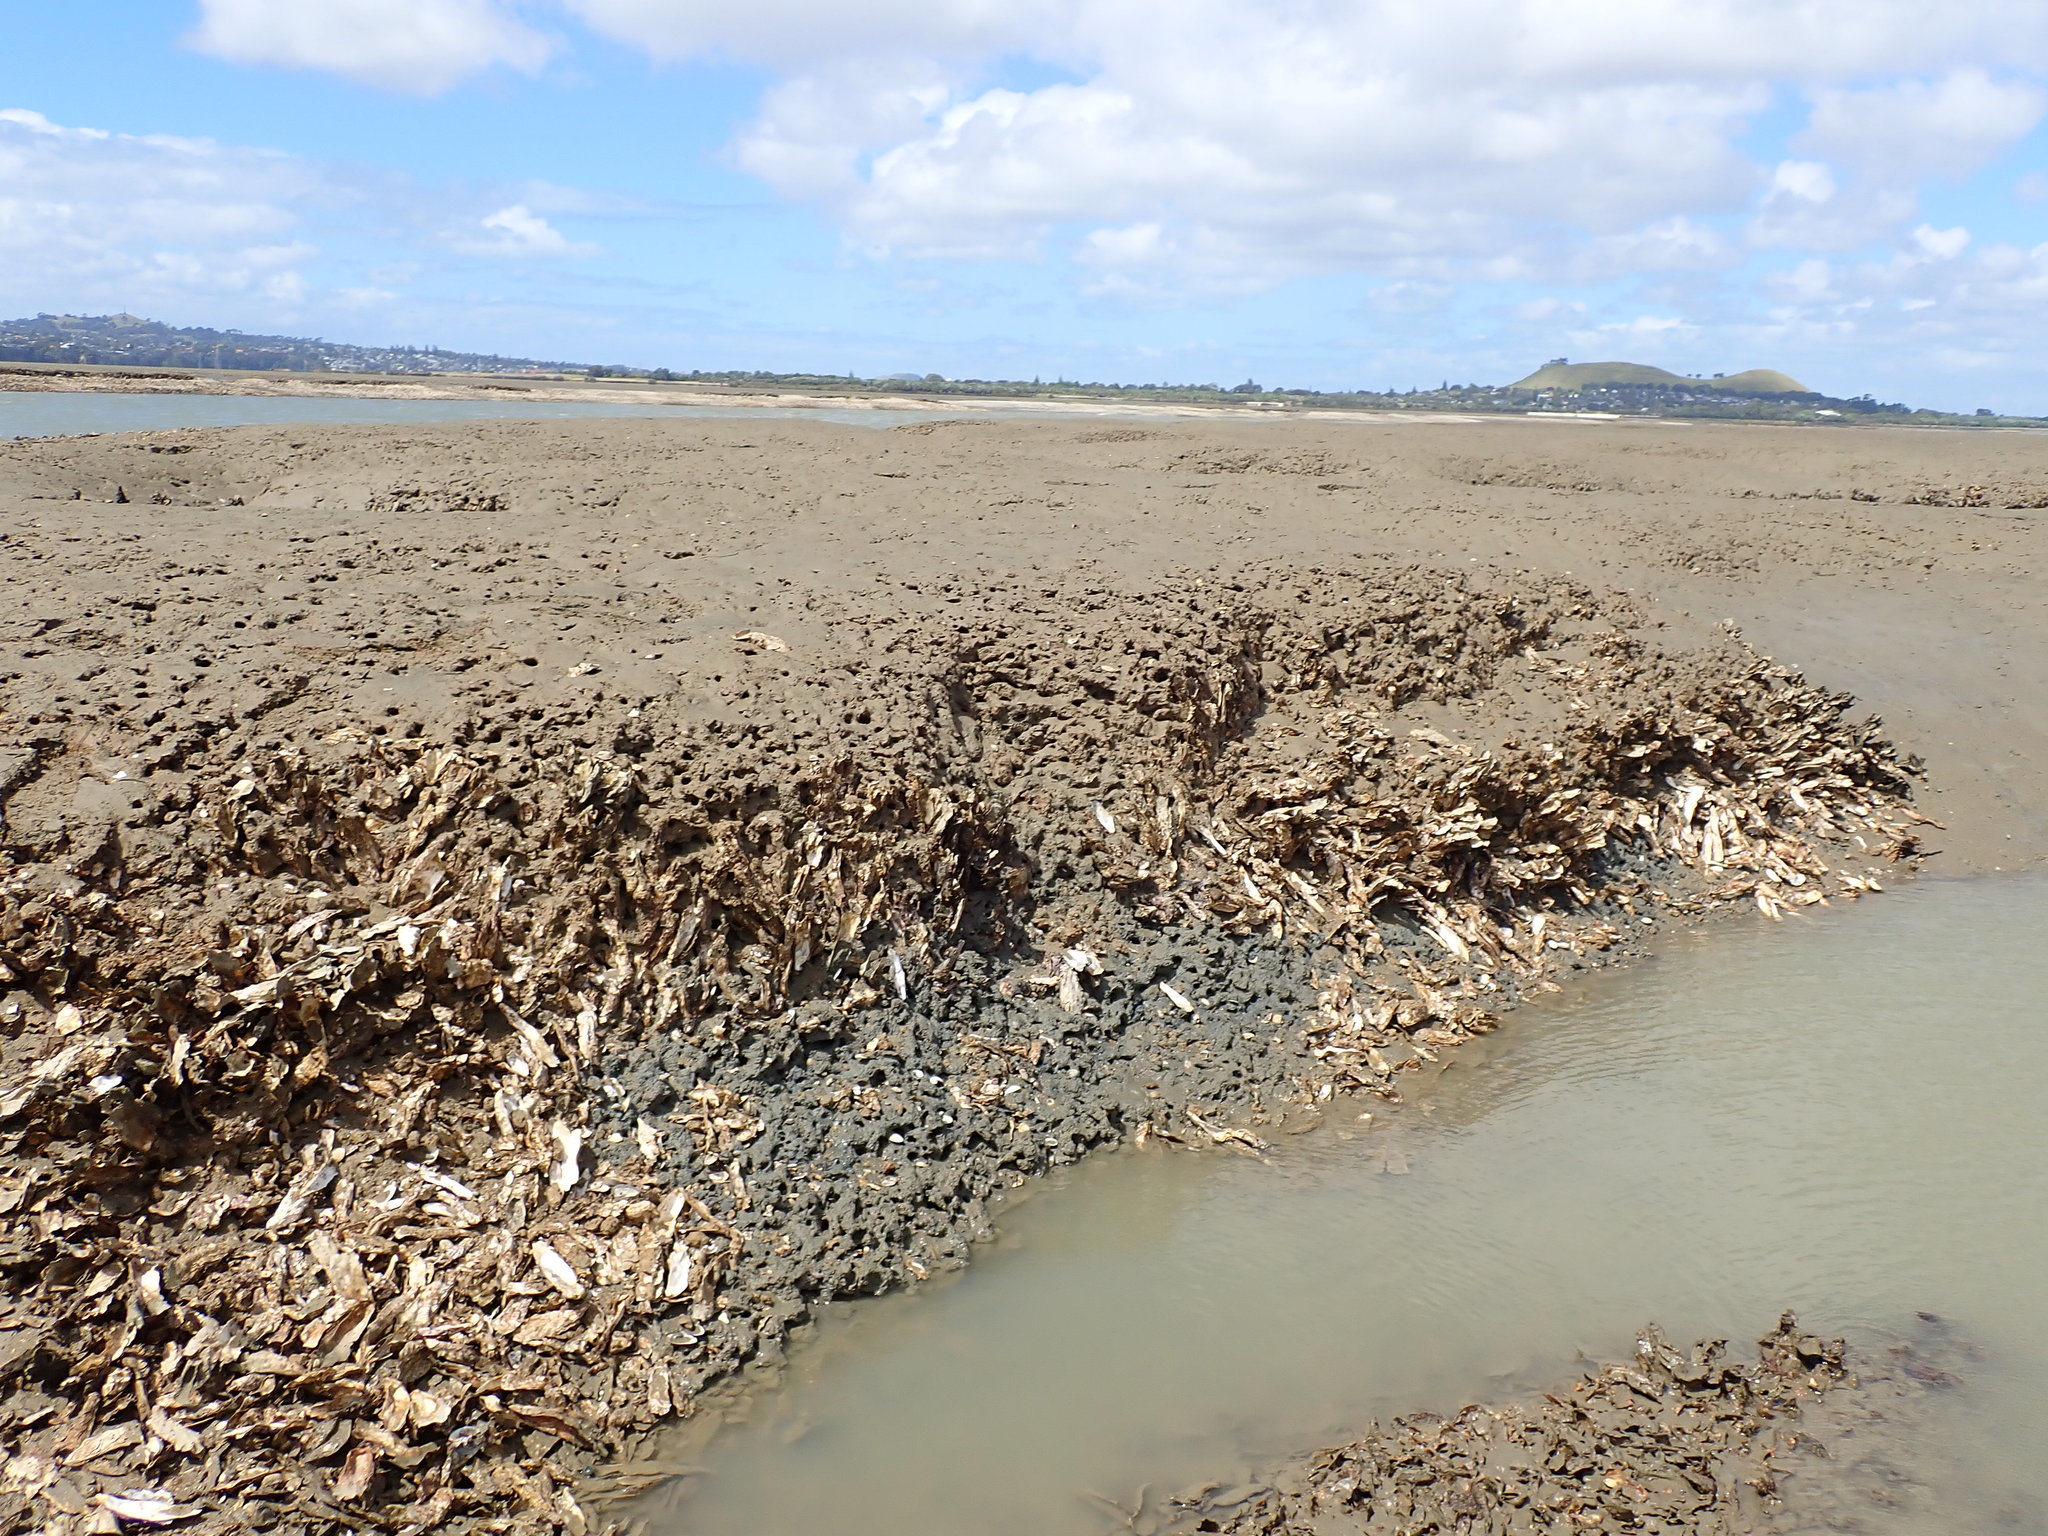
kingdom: Animalia
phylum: Mollusca
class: Bivalvia
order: Ostreida
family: Ostreidae
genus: Magallana
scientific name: Magallana gigas
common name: Pacific oyster
